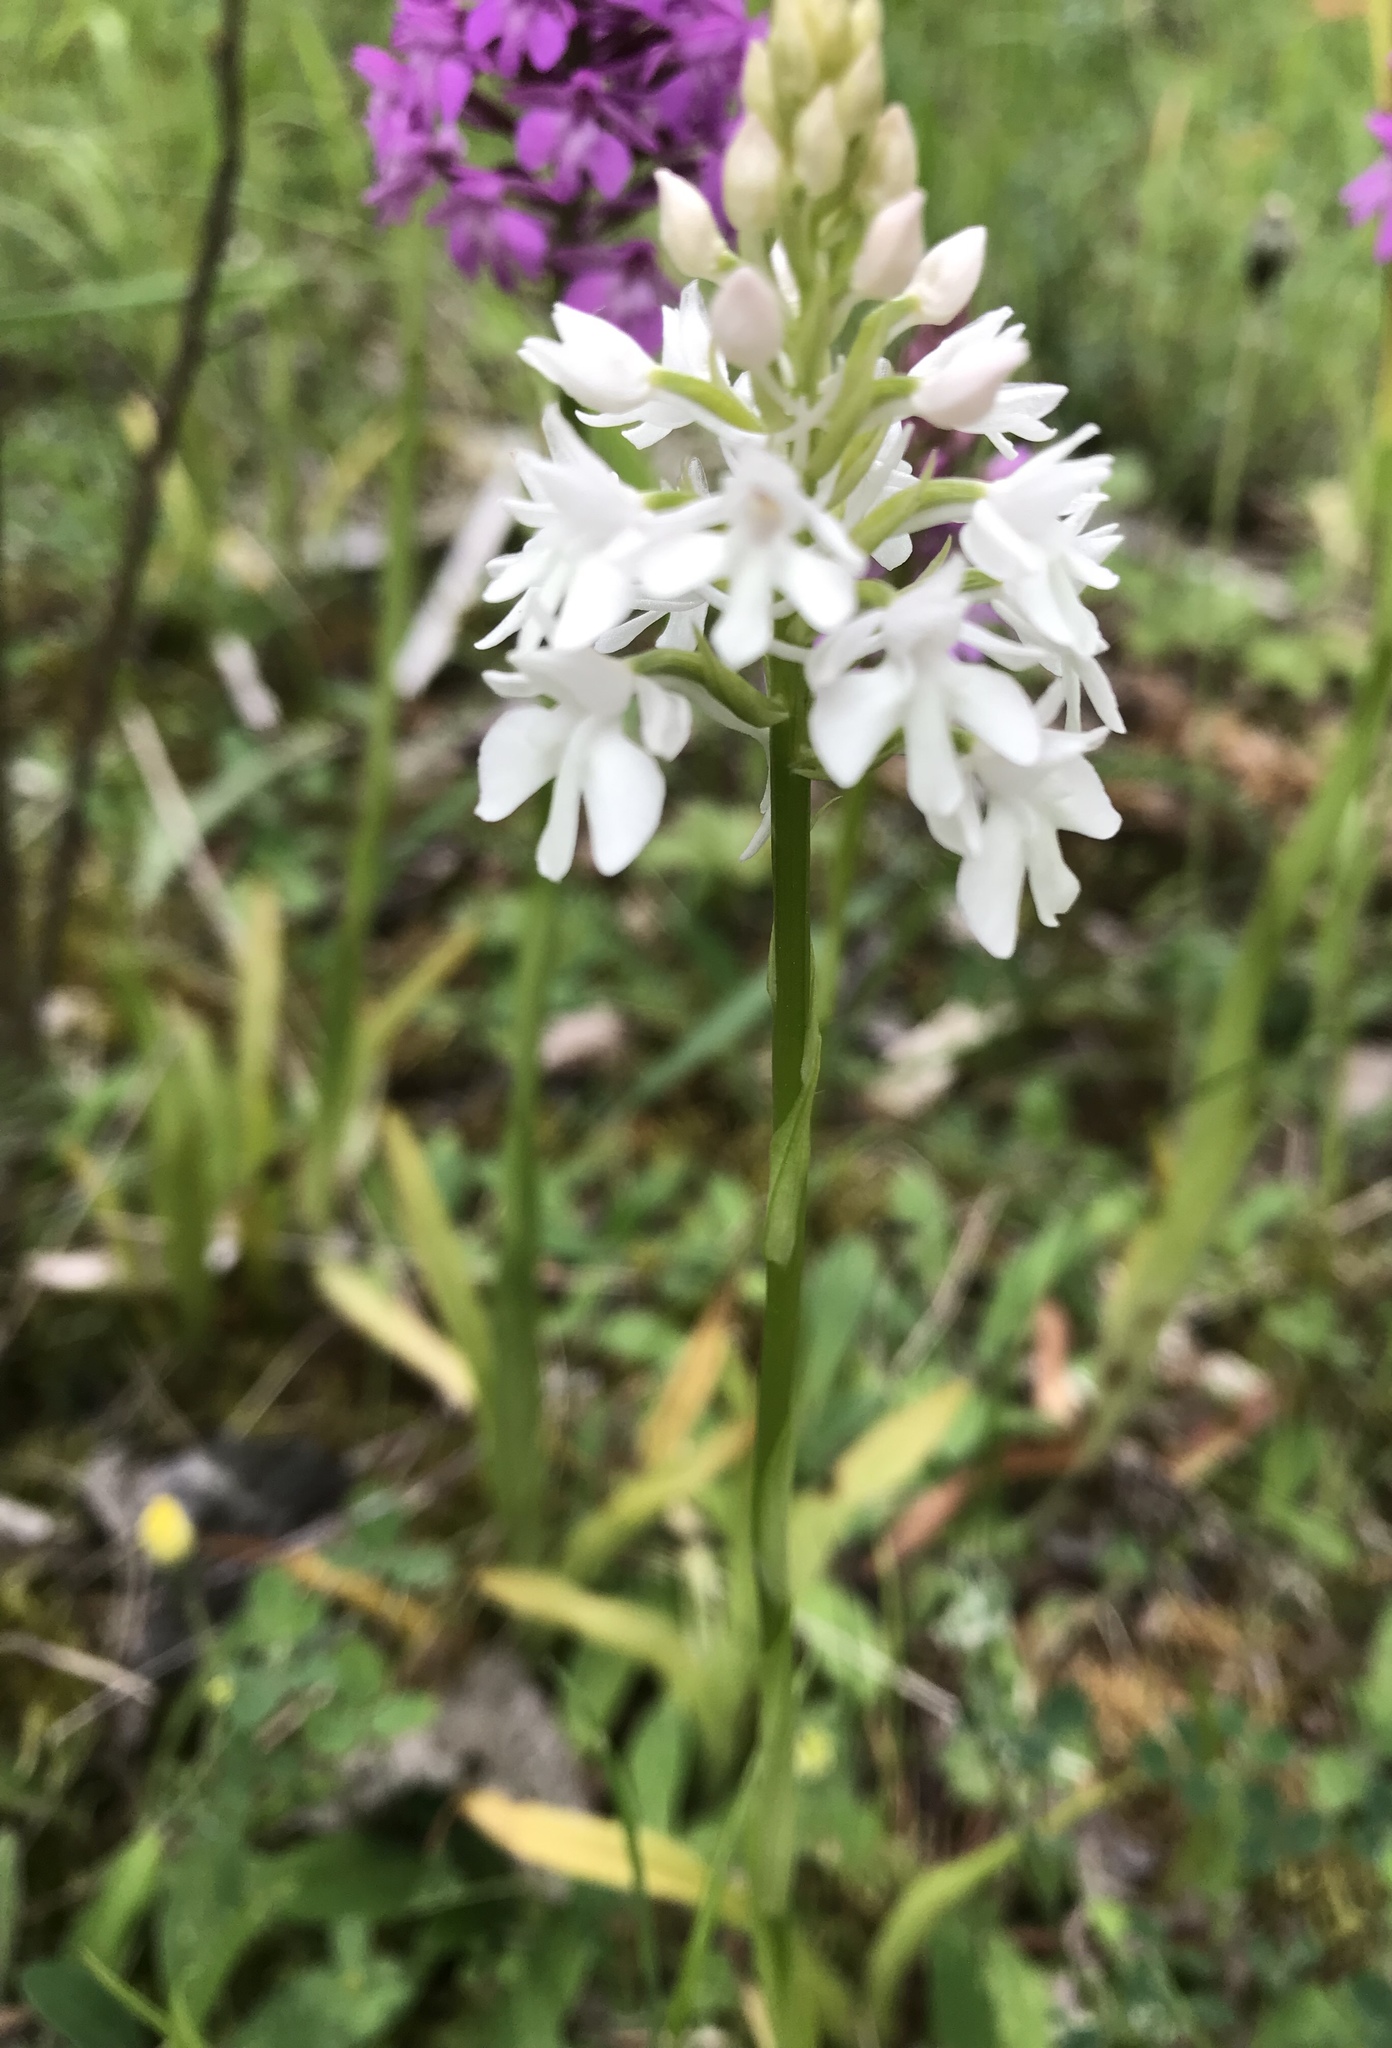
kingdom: Plantae
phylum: Tracheophyta
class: Liliopsida
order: Asparagales
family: Orchidaceae
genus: Anacamptis
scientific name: Anacamptis pyramidalis
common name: Pyramidal orchid
